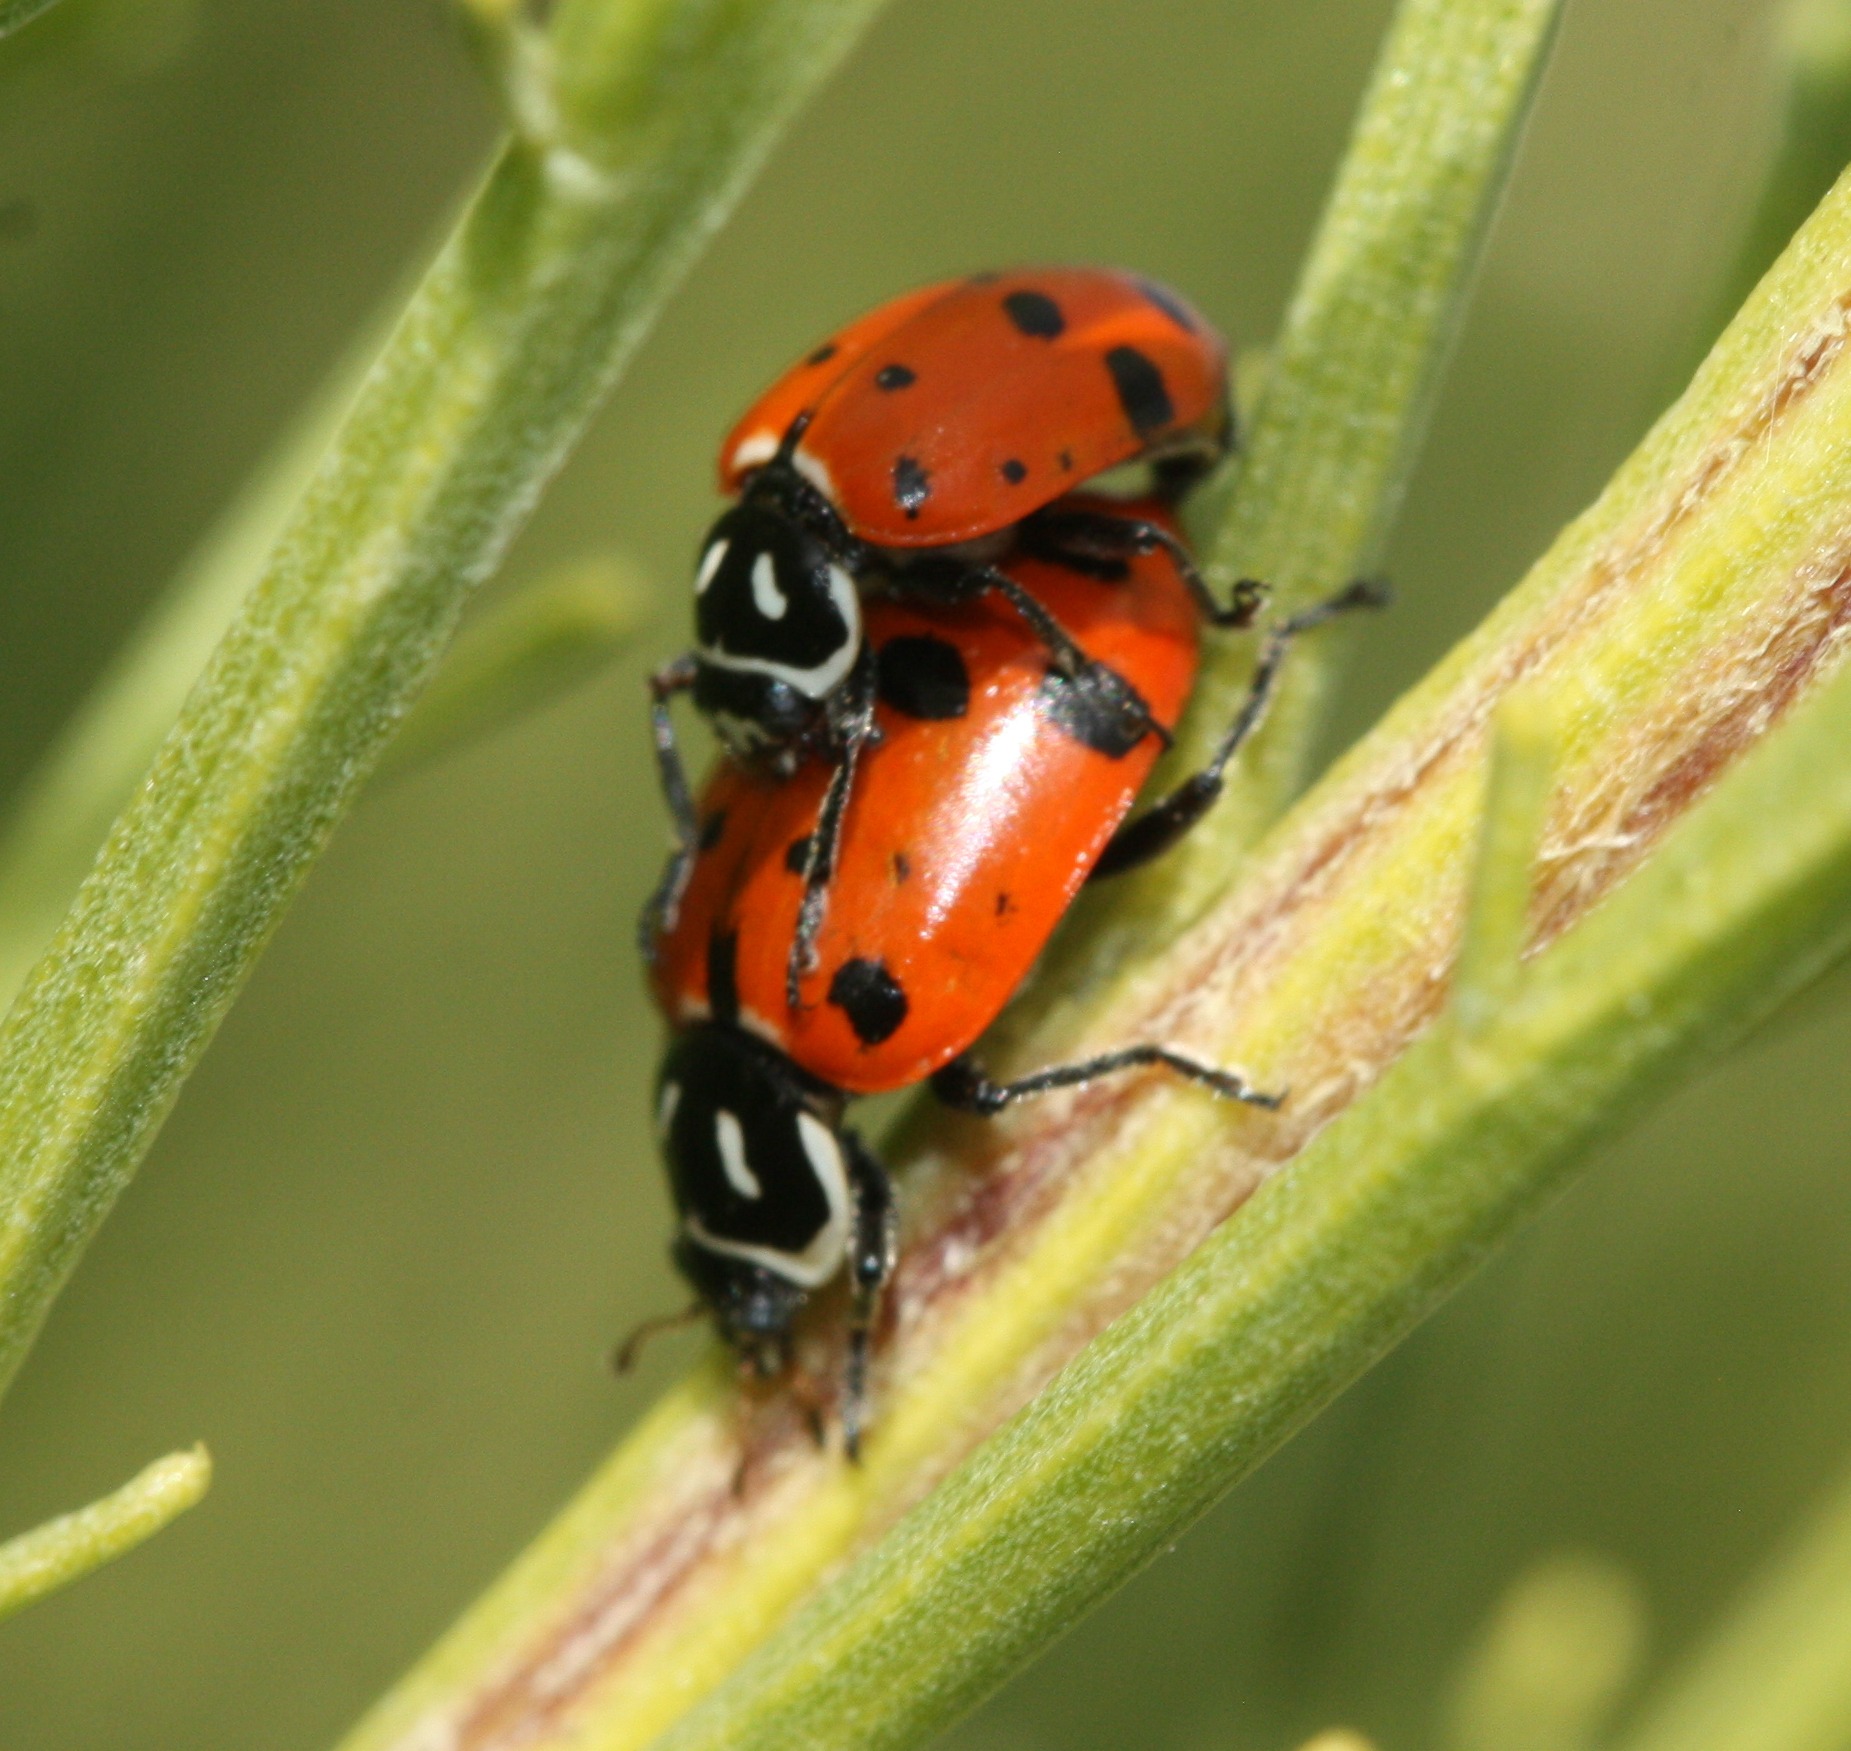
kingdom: Animalia
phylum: Arthropoda
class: Insecta
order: Coleoptera
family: Coccinellidae
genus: Hippodamia
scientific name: Hippodamia convergens
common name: Convergent lady beetle
